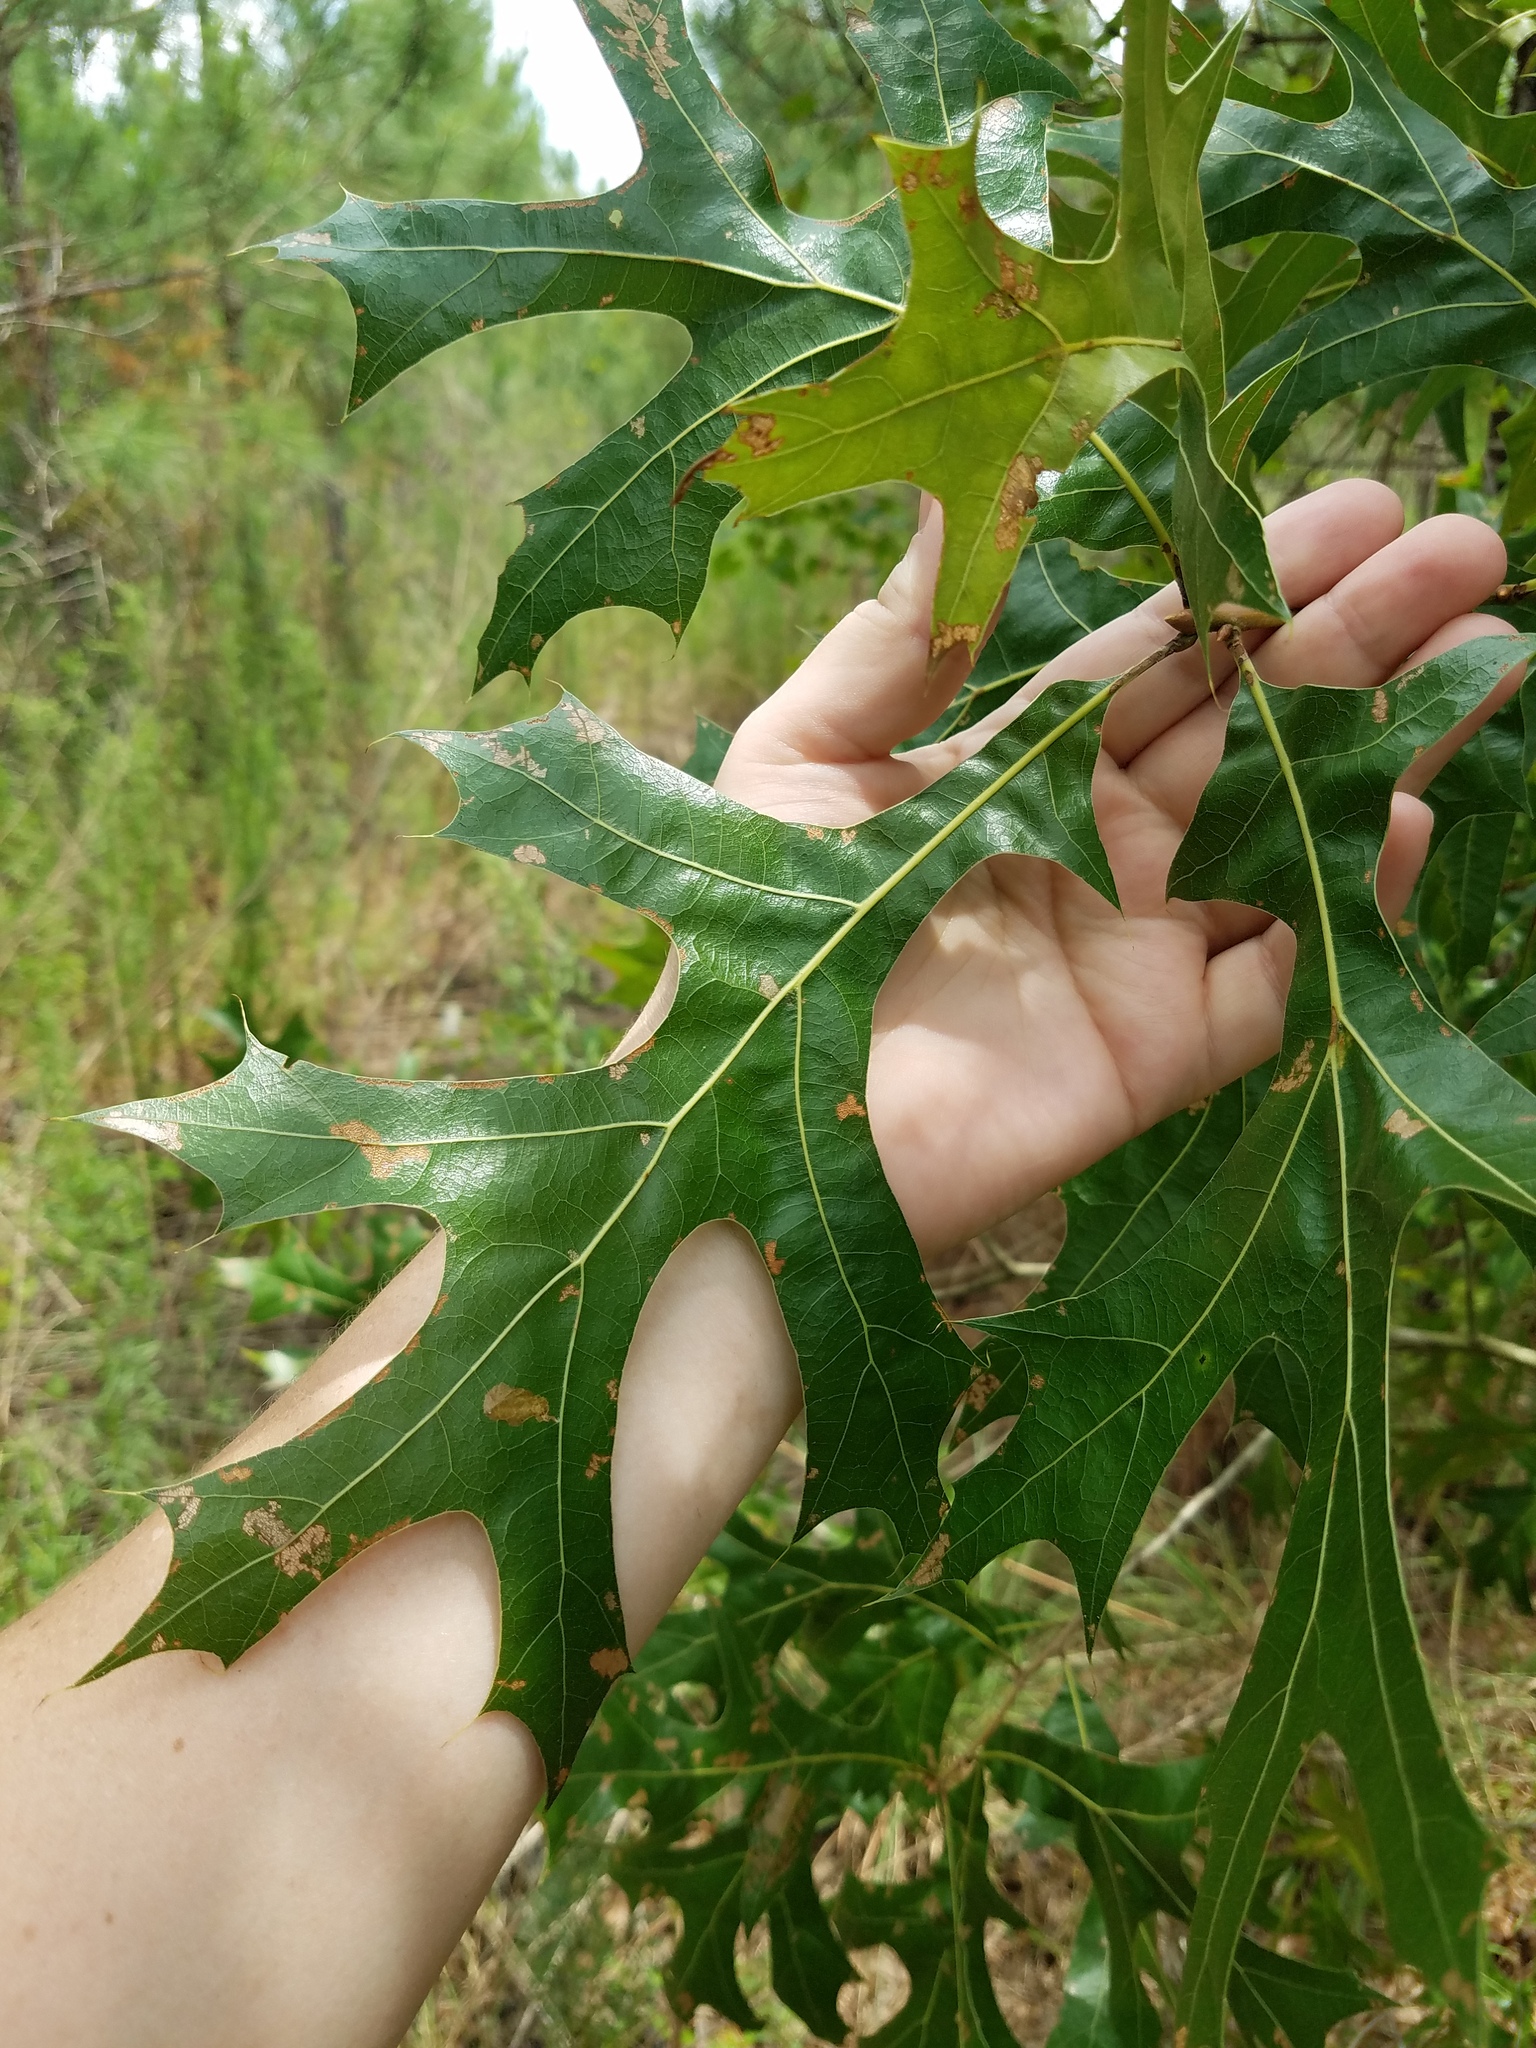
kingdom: Plantae
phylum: Tracheophyta
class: Magnoliopsida
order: Fagales
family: Fagaceae
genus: Quercus
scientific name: Quercus laevis
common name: Turkey oak
